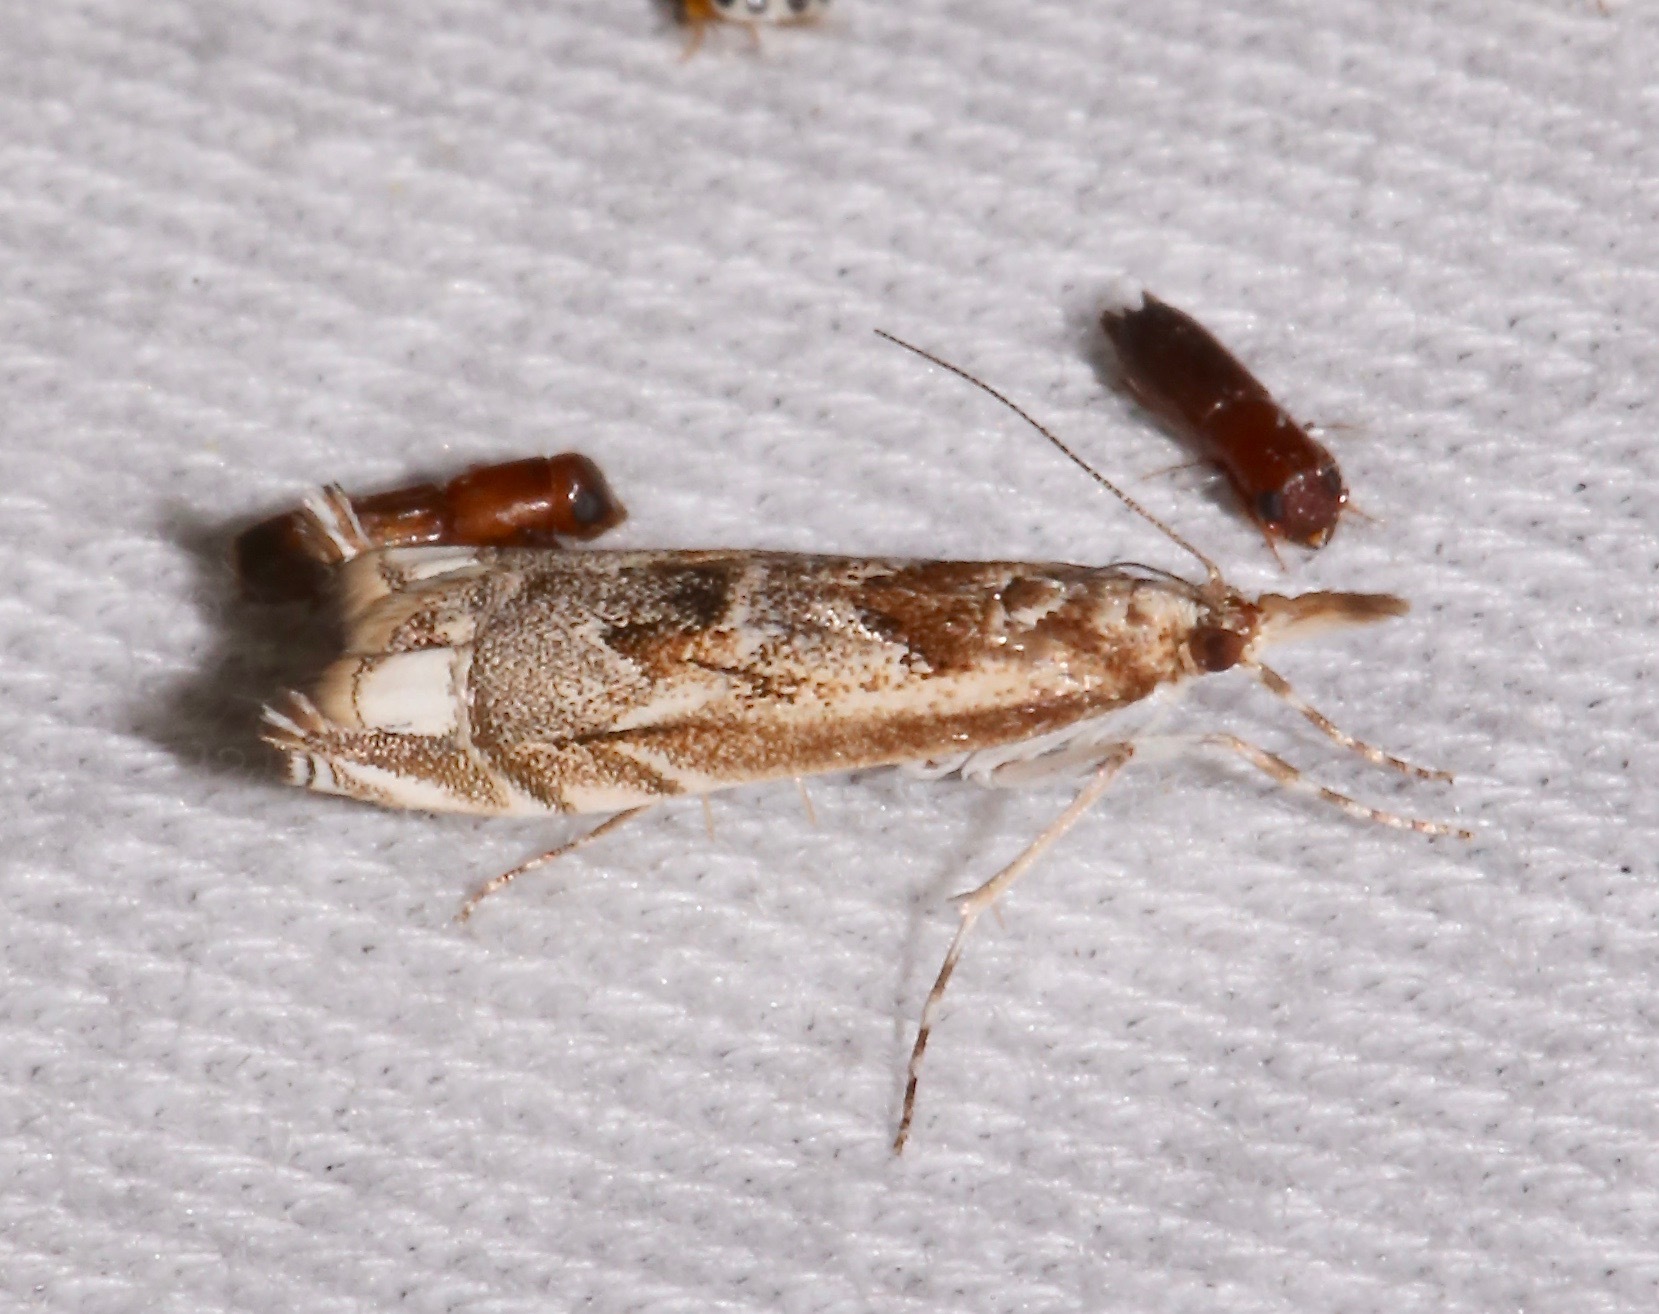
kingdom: Animalia
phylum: Arthropoda
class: Insecta
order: Lepidoptera
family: Crambidae
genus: Prionapteryx
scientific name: Prionapteryx achatina
